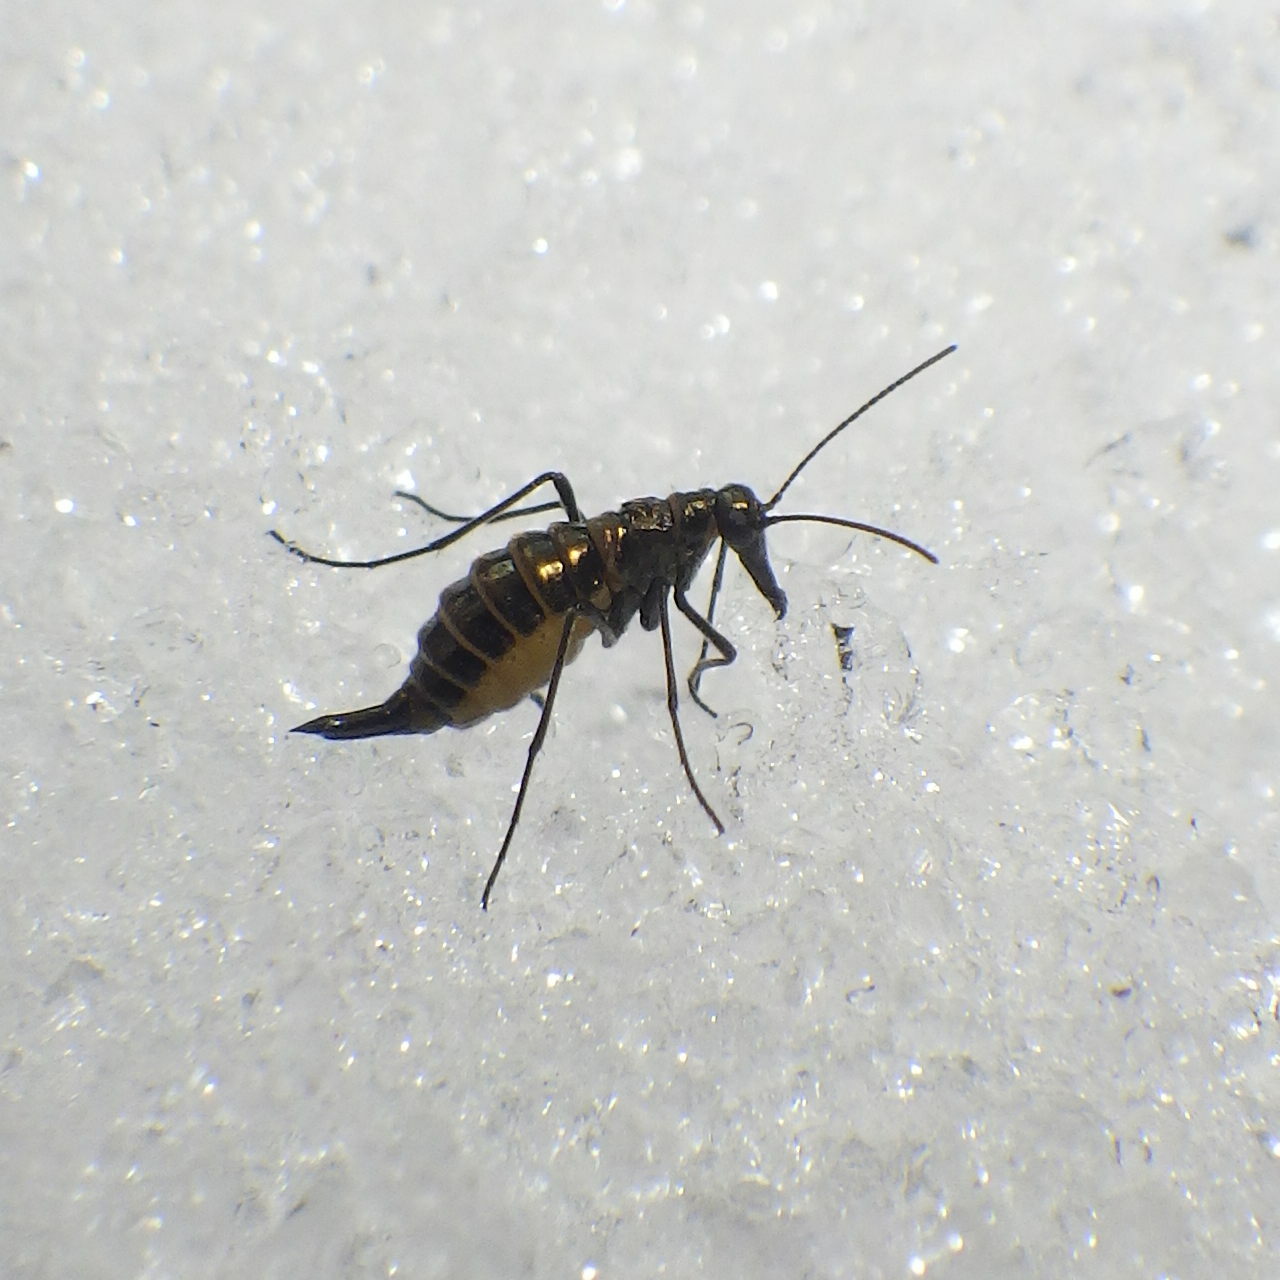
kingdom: Animalia
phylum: Arthropoda
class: Insecta
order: Mecoptera
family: Boreidae
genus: Boreus
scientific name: Boreus brumalis
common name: Mid-winter boreus
